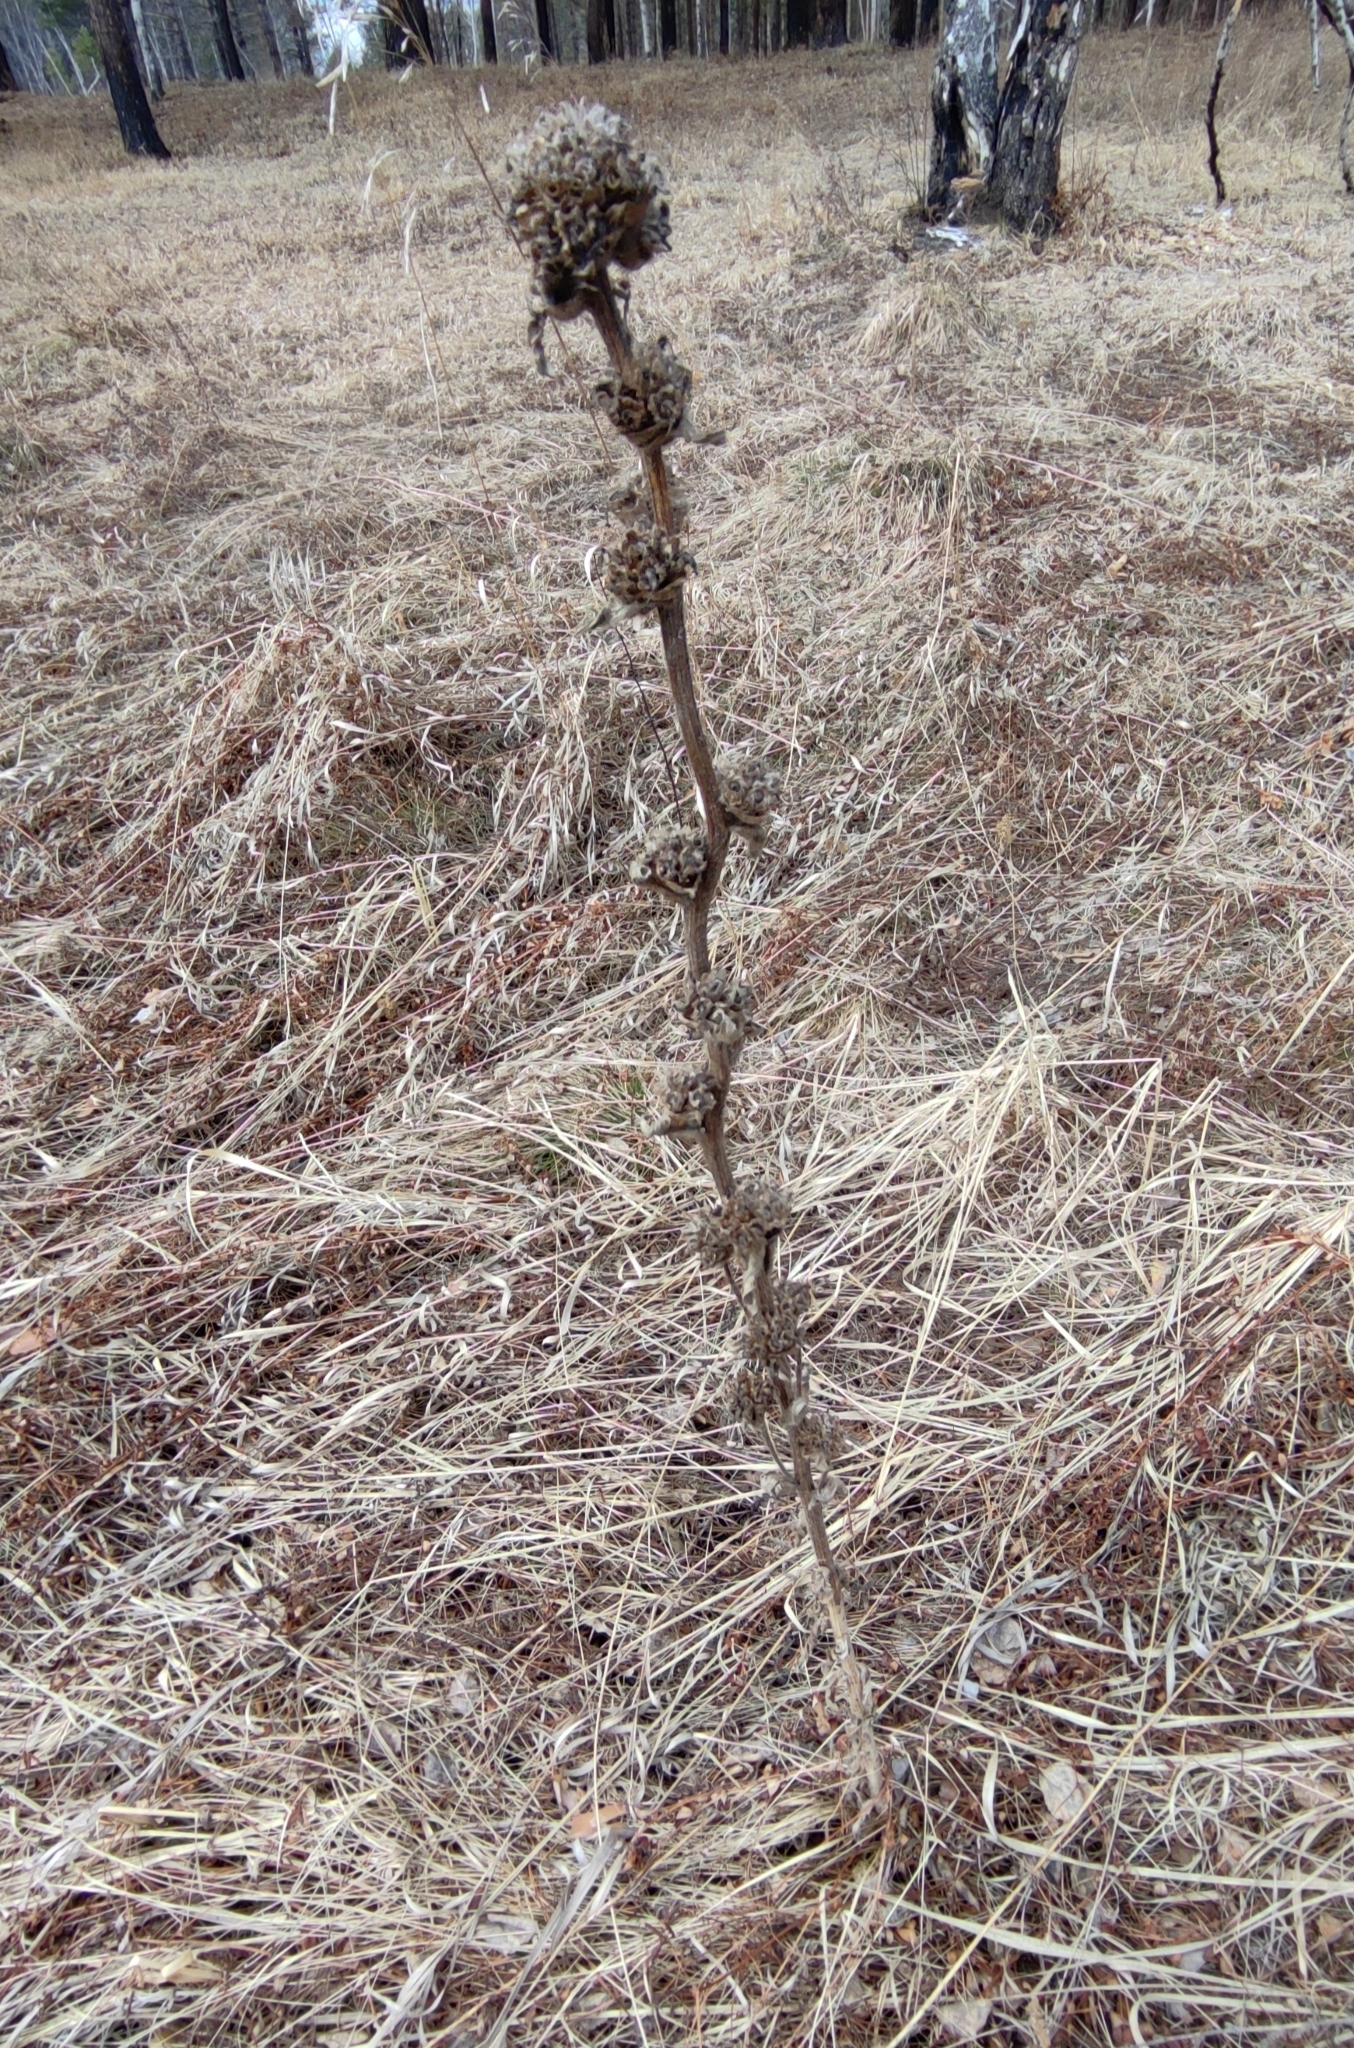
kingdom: Plantae
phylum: Tracheophyta
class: Magnoliopsida
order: Asterales
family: Campanulaceae
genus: Campanula
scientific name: Campanula cervicaria
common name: Bristly bellflower
